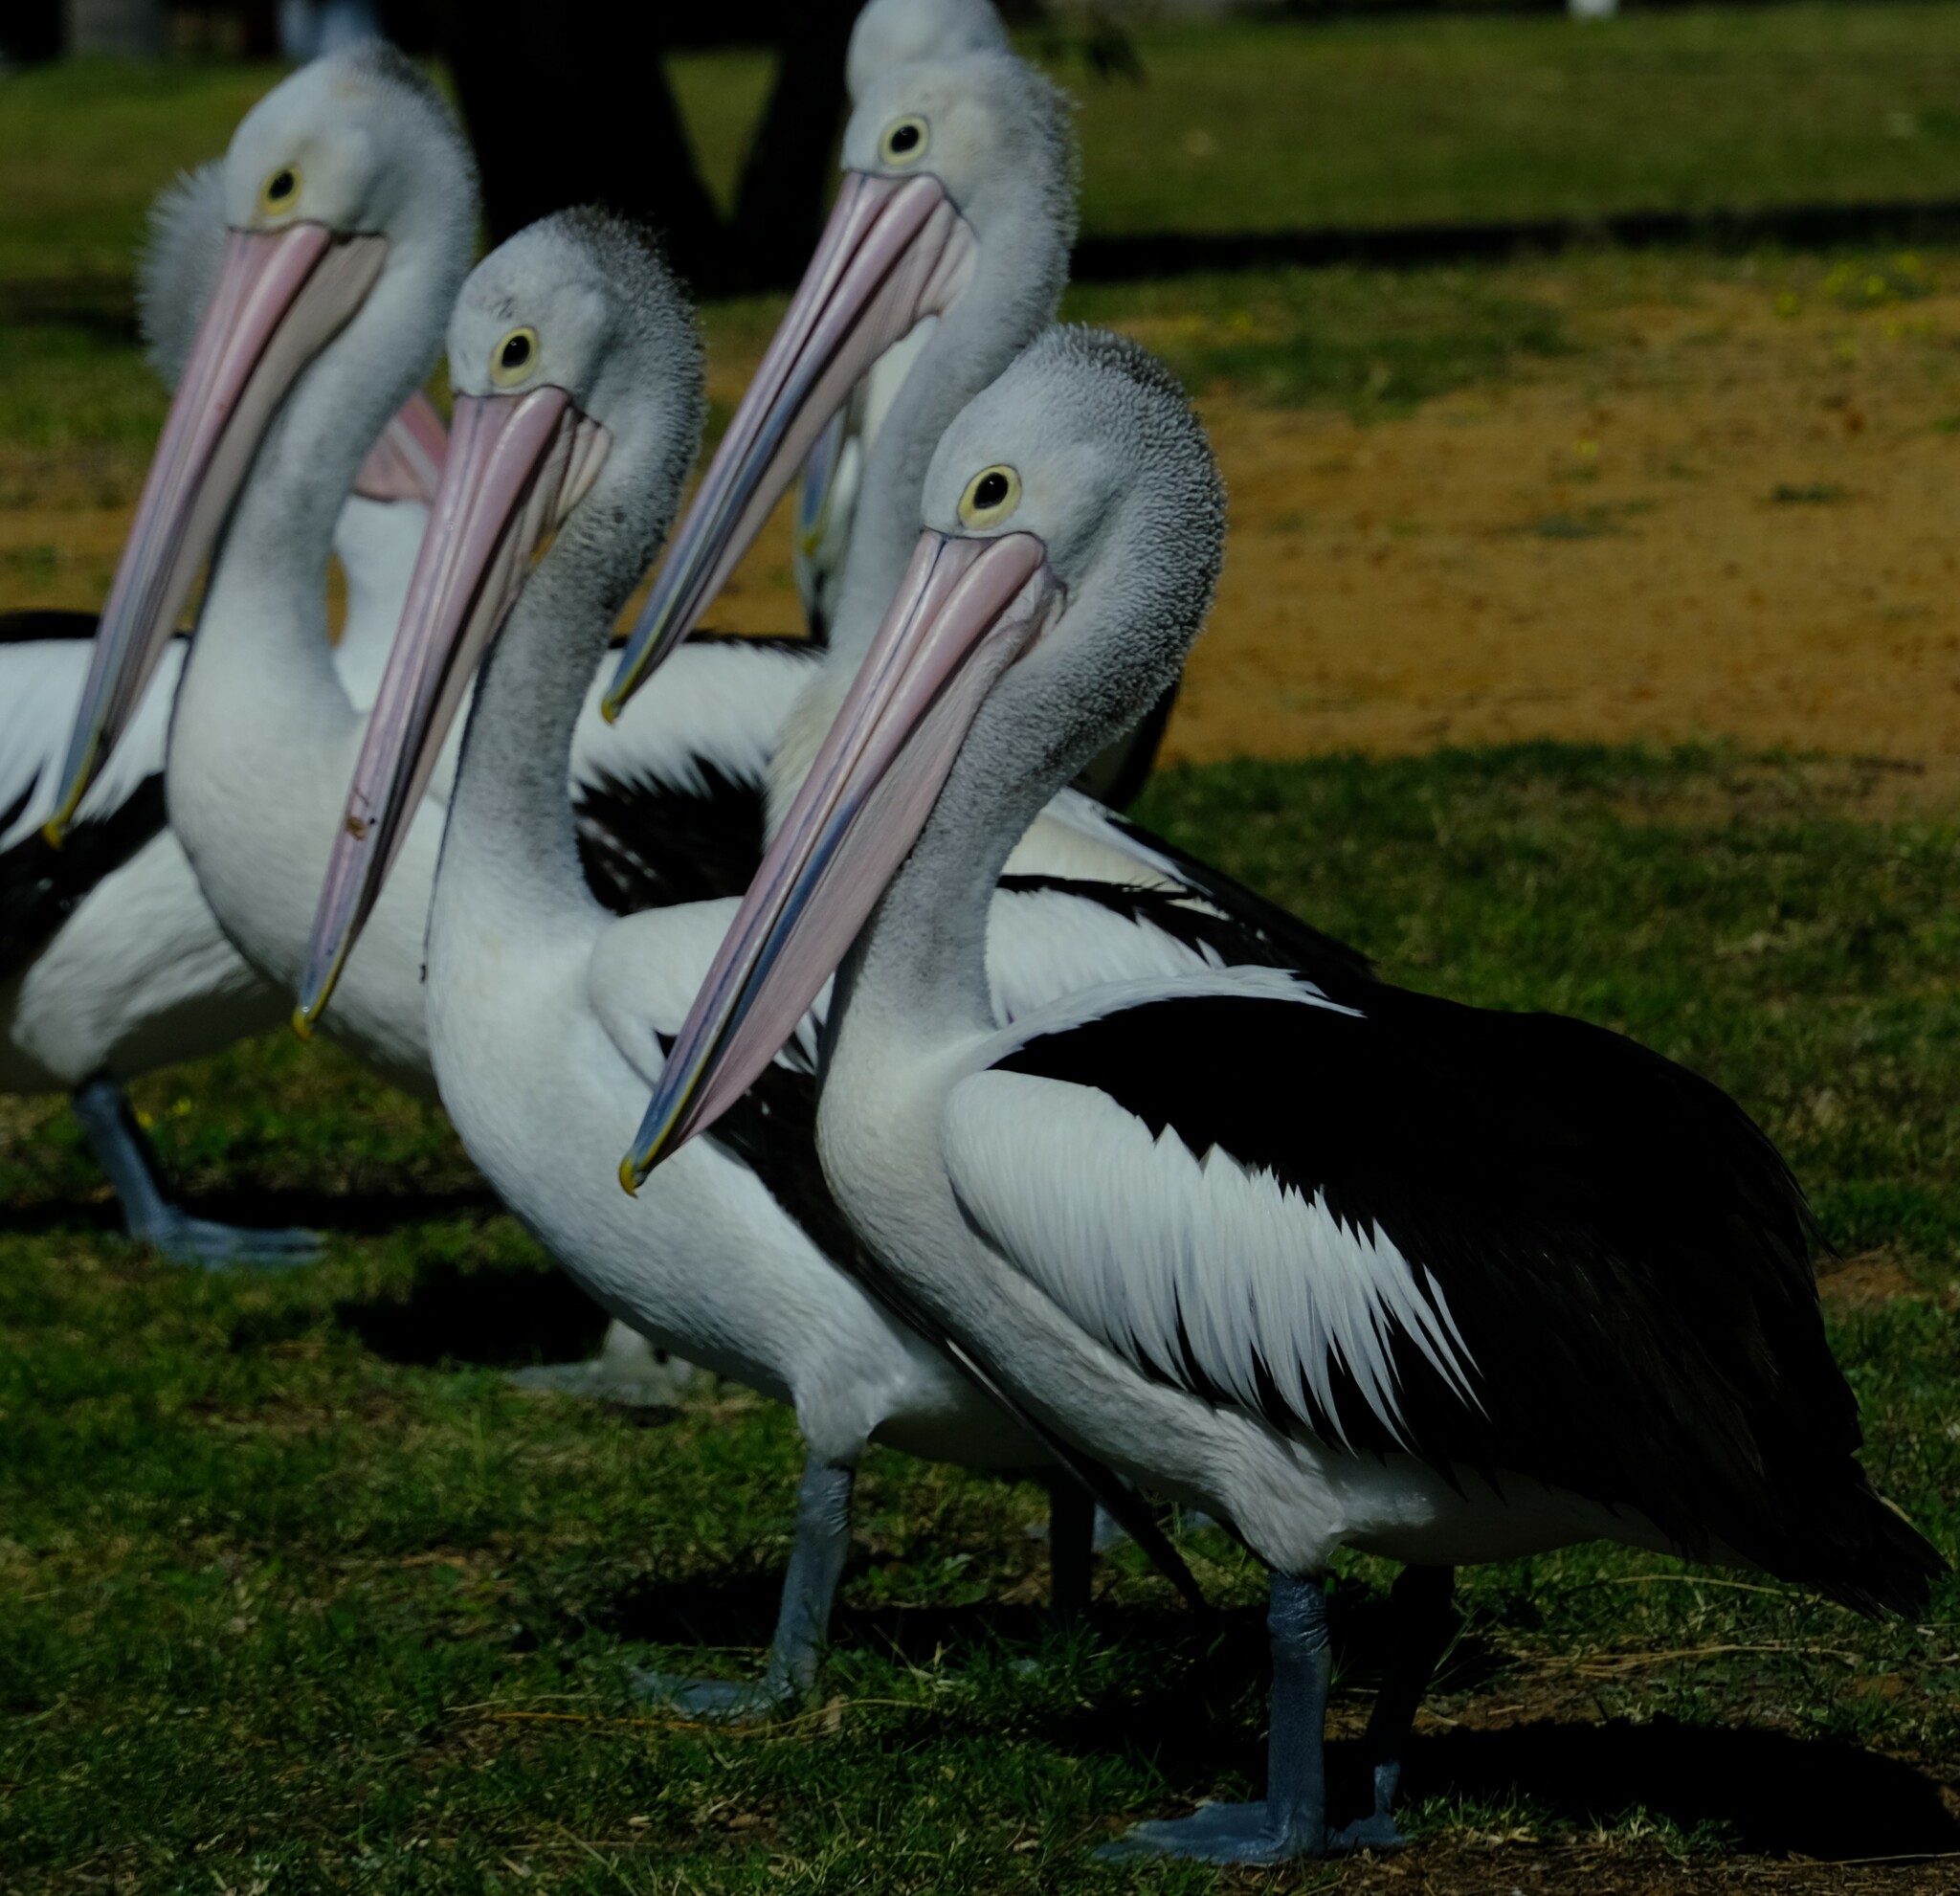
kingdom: Animalia
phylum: Chordata
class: Aves
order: Pelecaniformes
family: Pelecanidae
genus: Pelecanus
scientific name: Pelecanus conspicillatus
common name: Australian pelican
